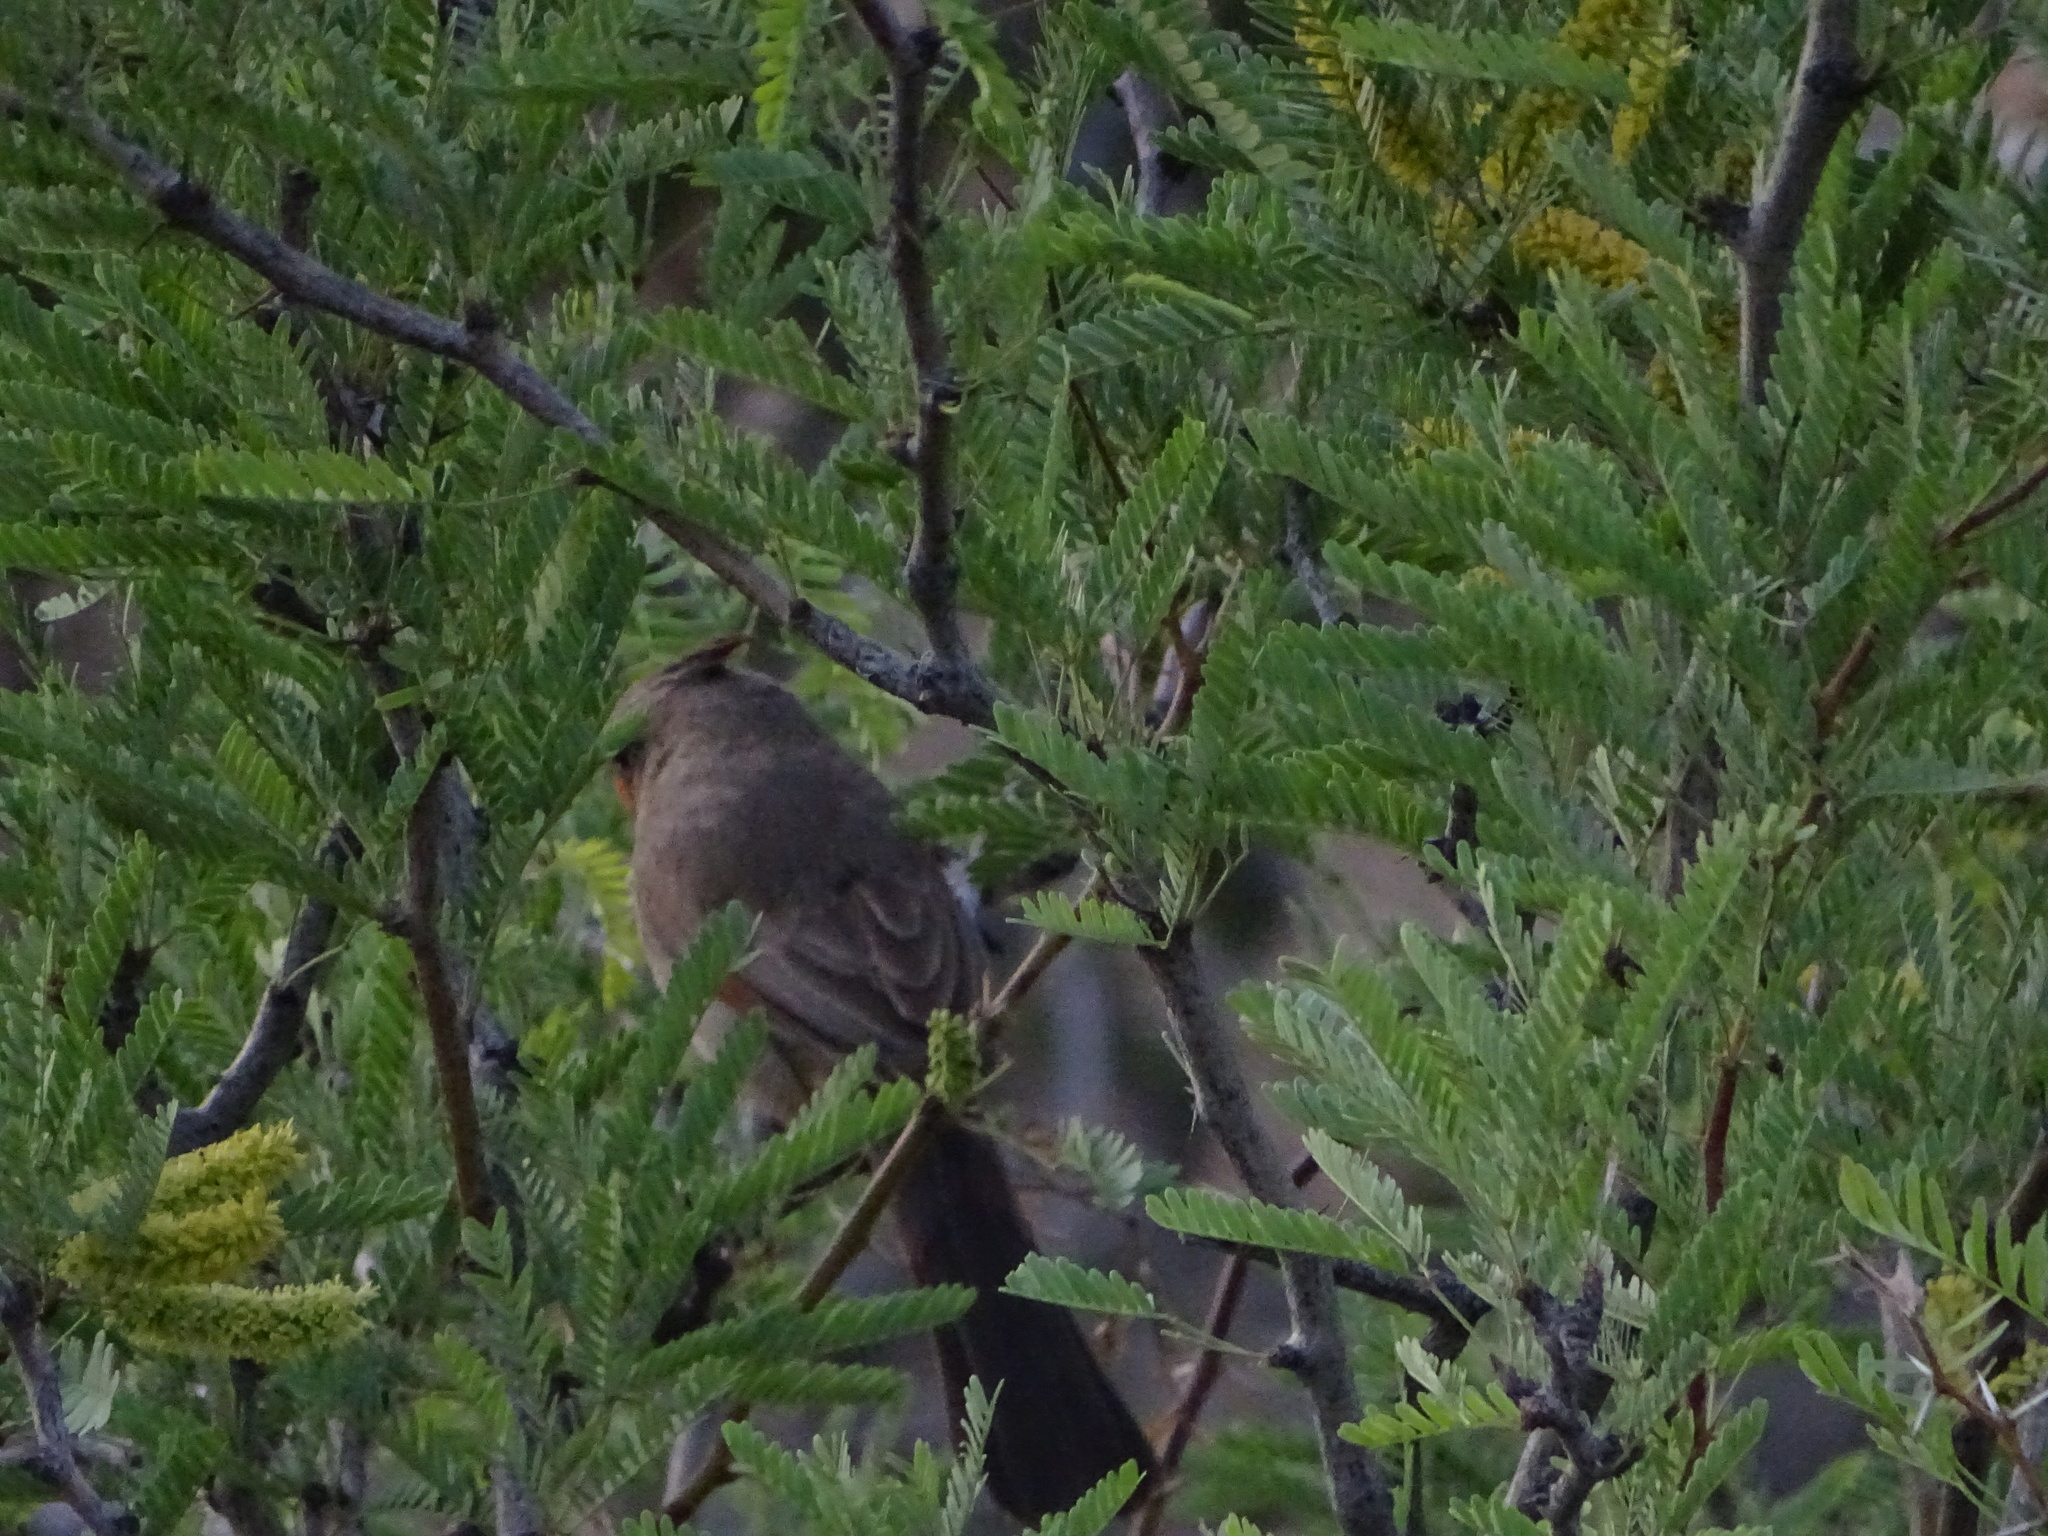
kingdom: Animalia
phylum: Chordata
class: Aves
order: Passeriformes
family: Cardinalidae
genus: Cardinalis
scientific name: Cardinalis sinuatus
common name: Pyrrhuloxia
